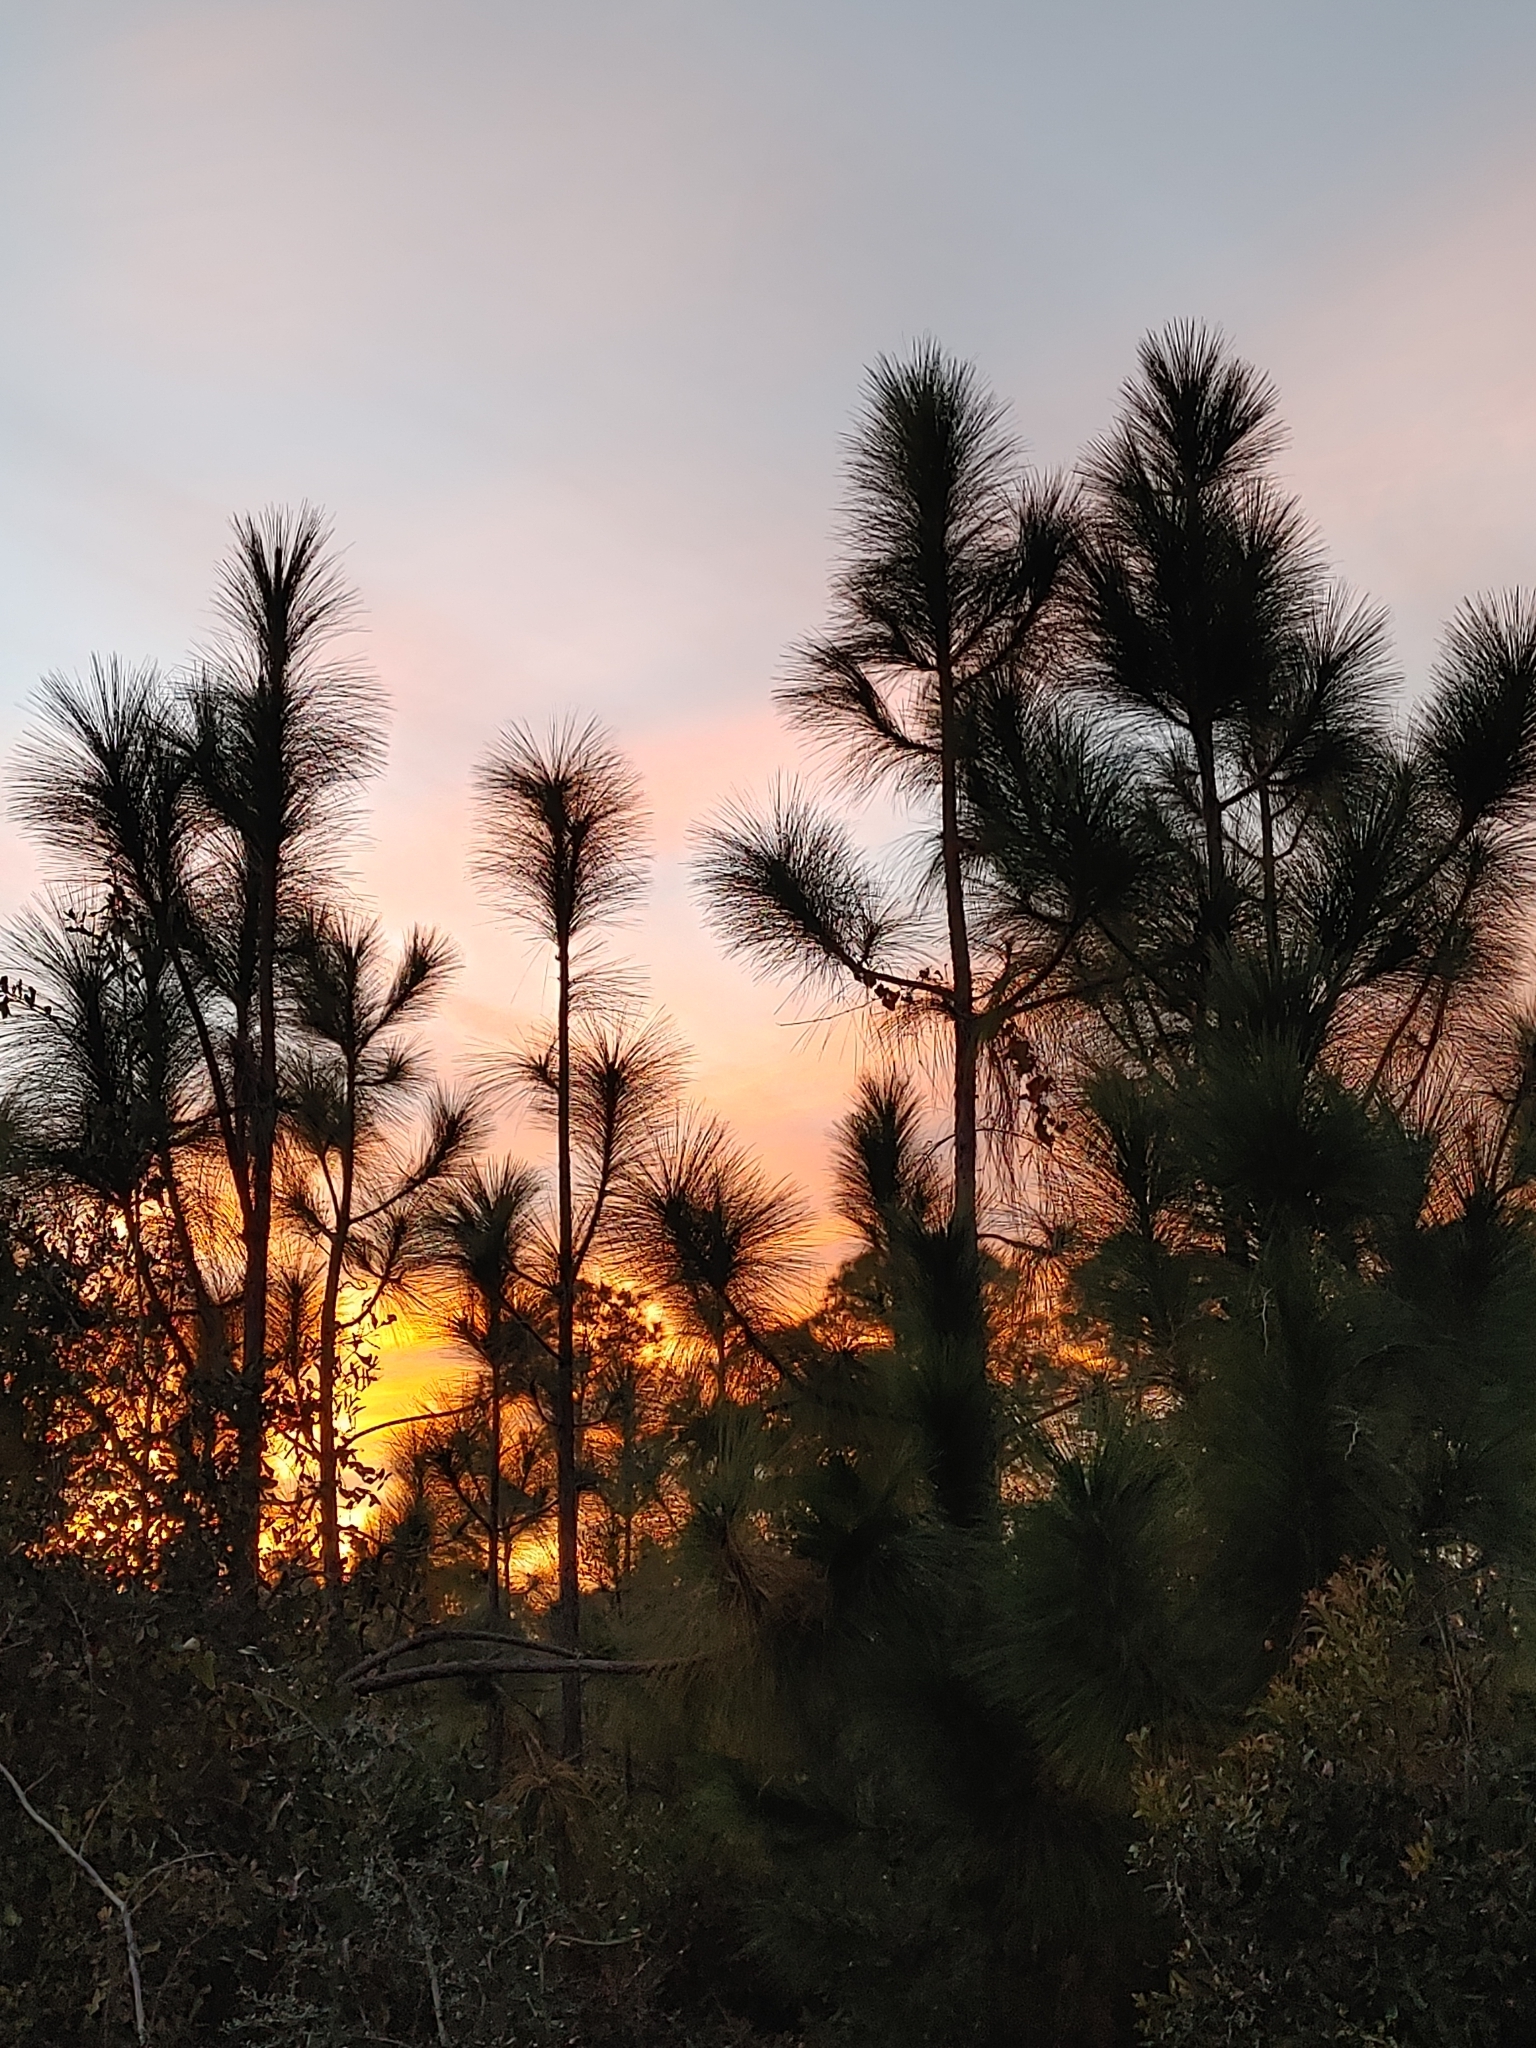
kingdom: Plantae
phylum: Tracheophyta
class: Pinopsida
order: Pinales
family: Pinaceae
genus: Pinus
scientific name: Pinus palustris
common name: Longleaf pine
